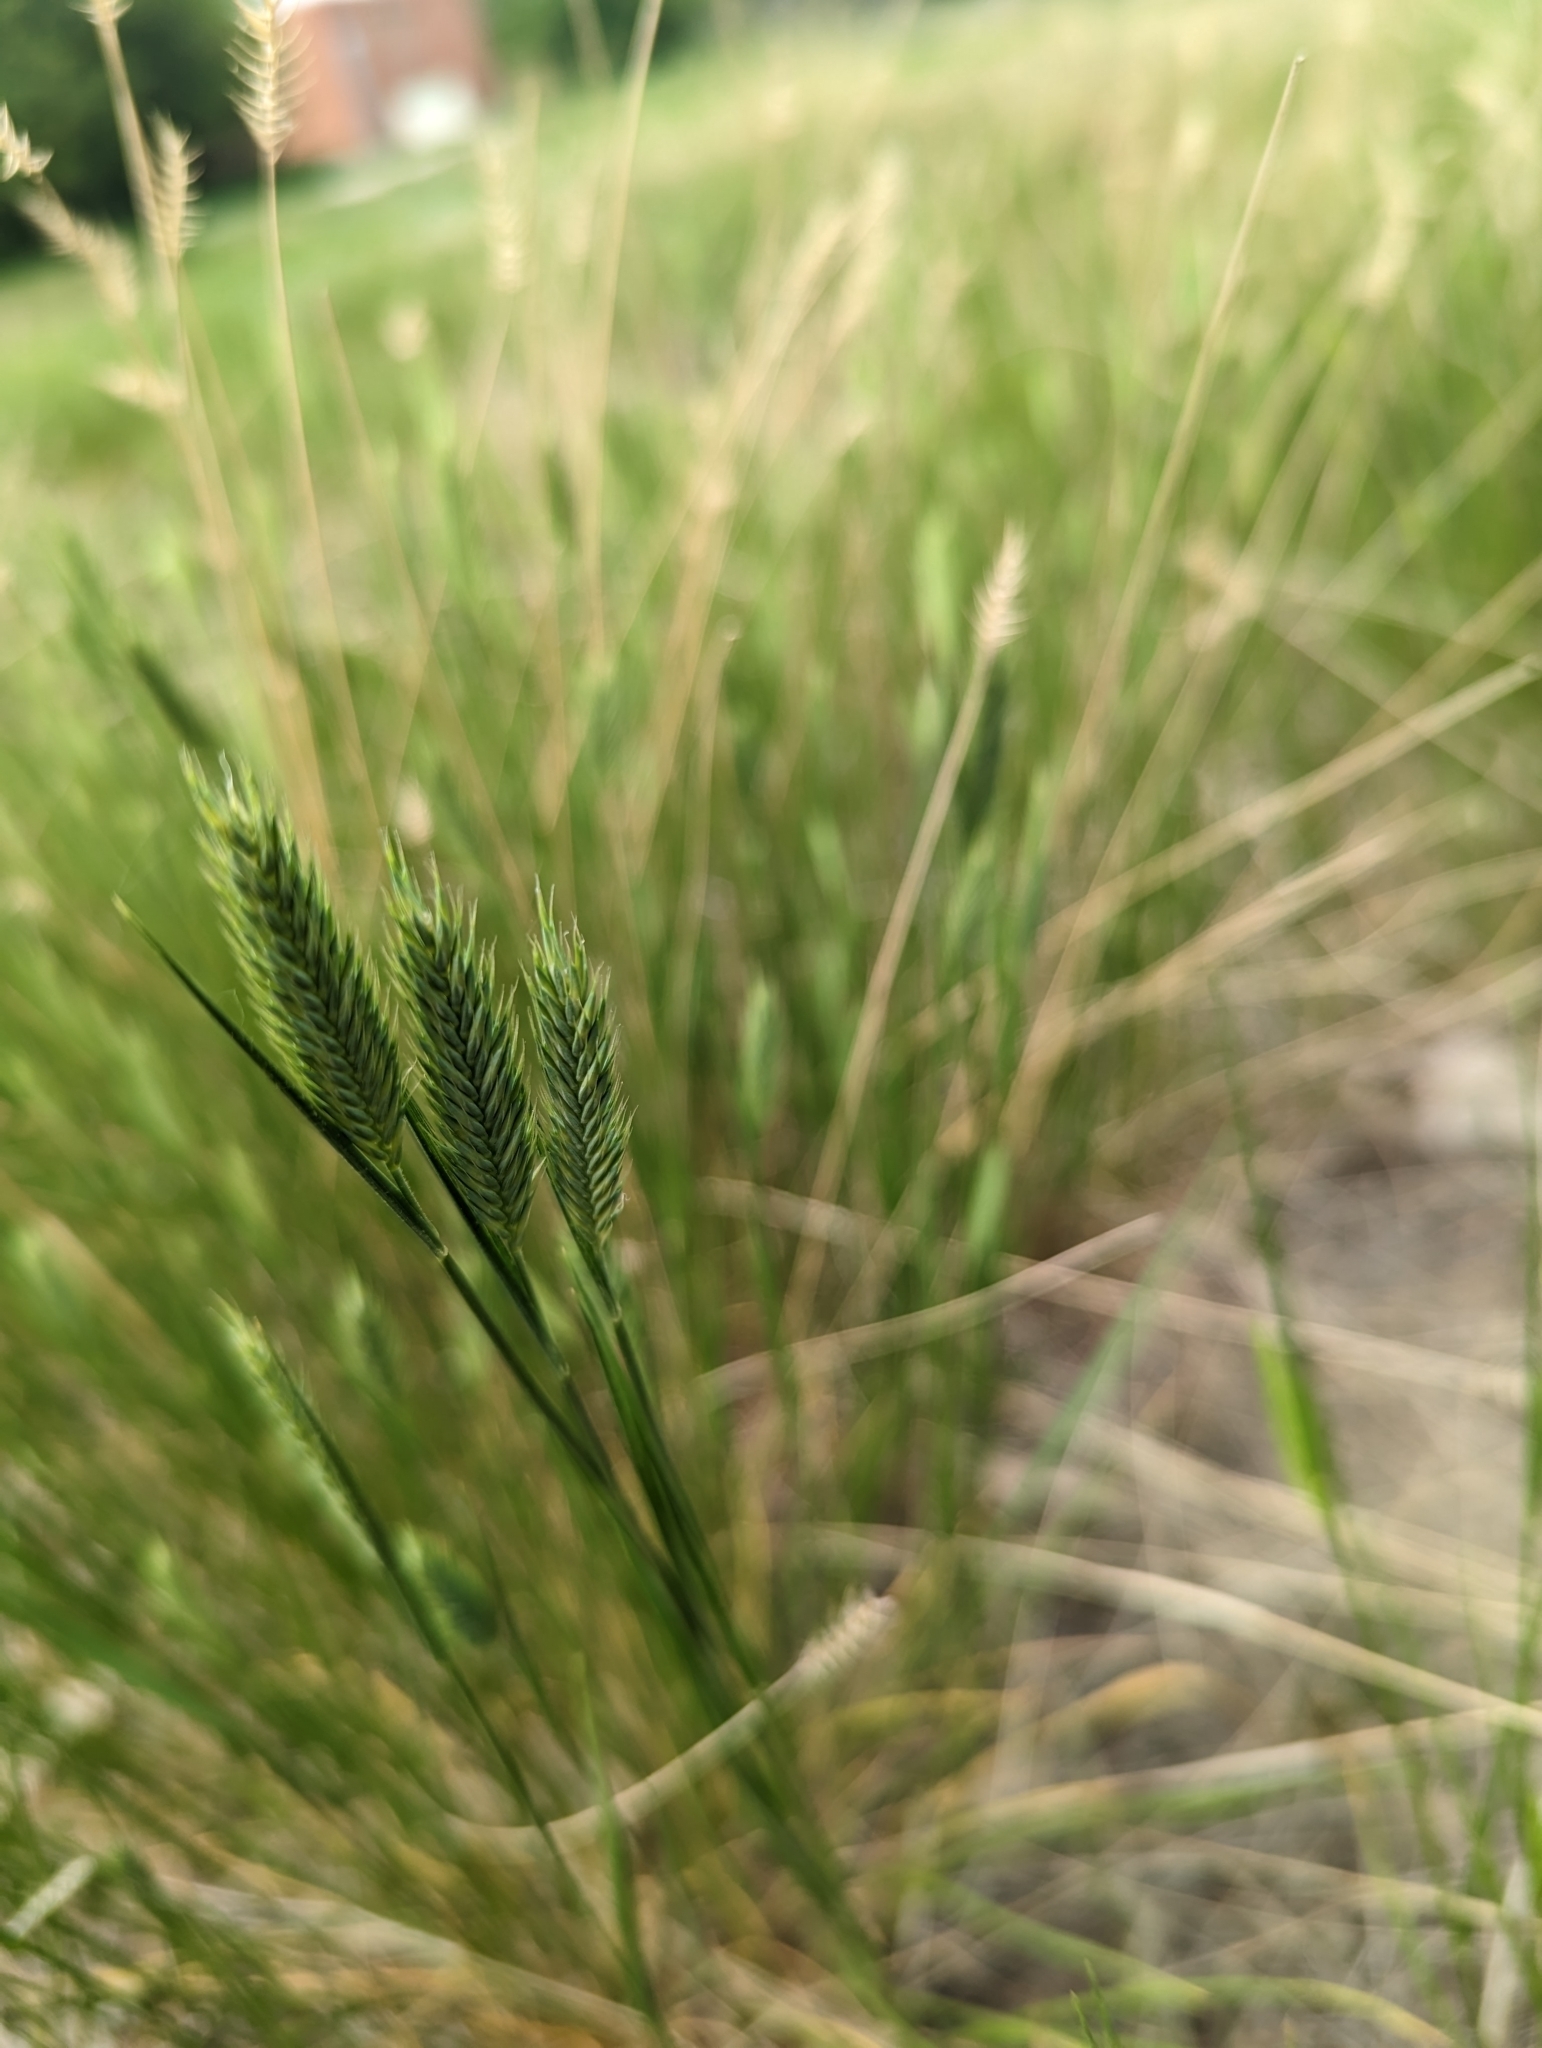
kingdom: Plantae
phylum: Tracheophyta
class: Liliopsida
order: Poales
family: Poaceae
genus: Agropyron
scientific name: Agropyron cristatum
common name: Crested wheatgrass
